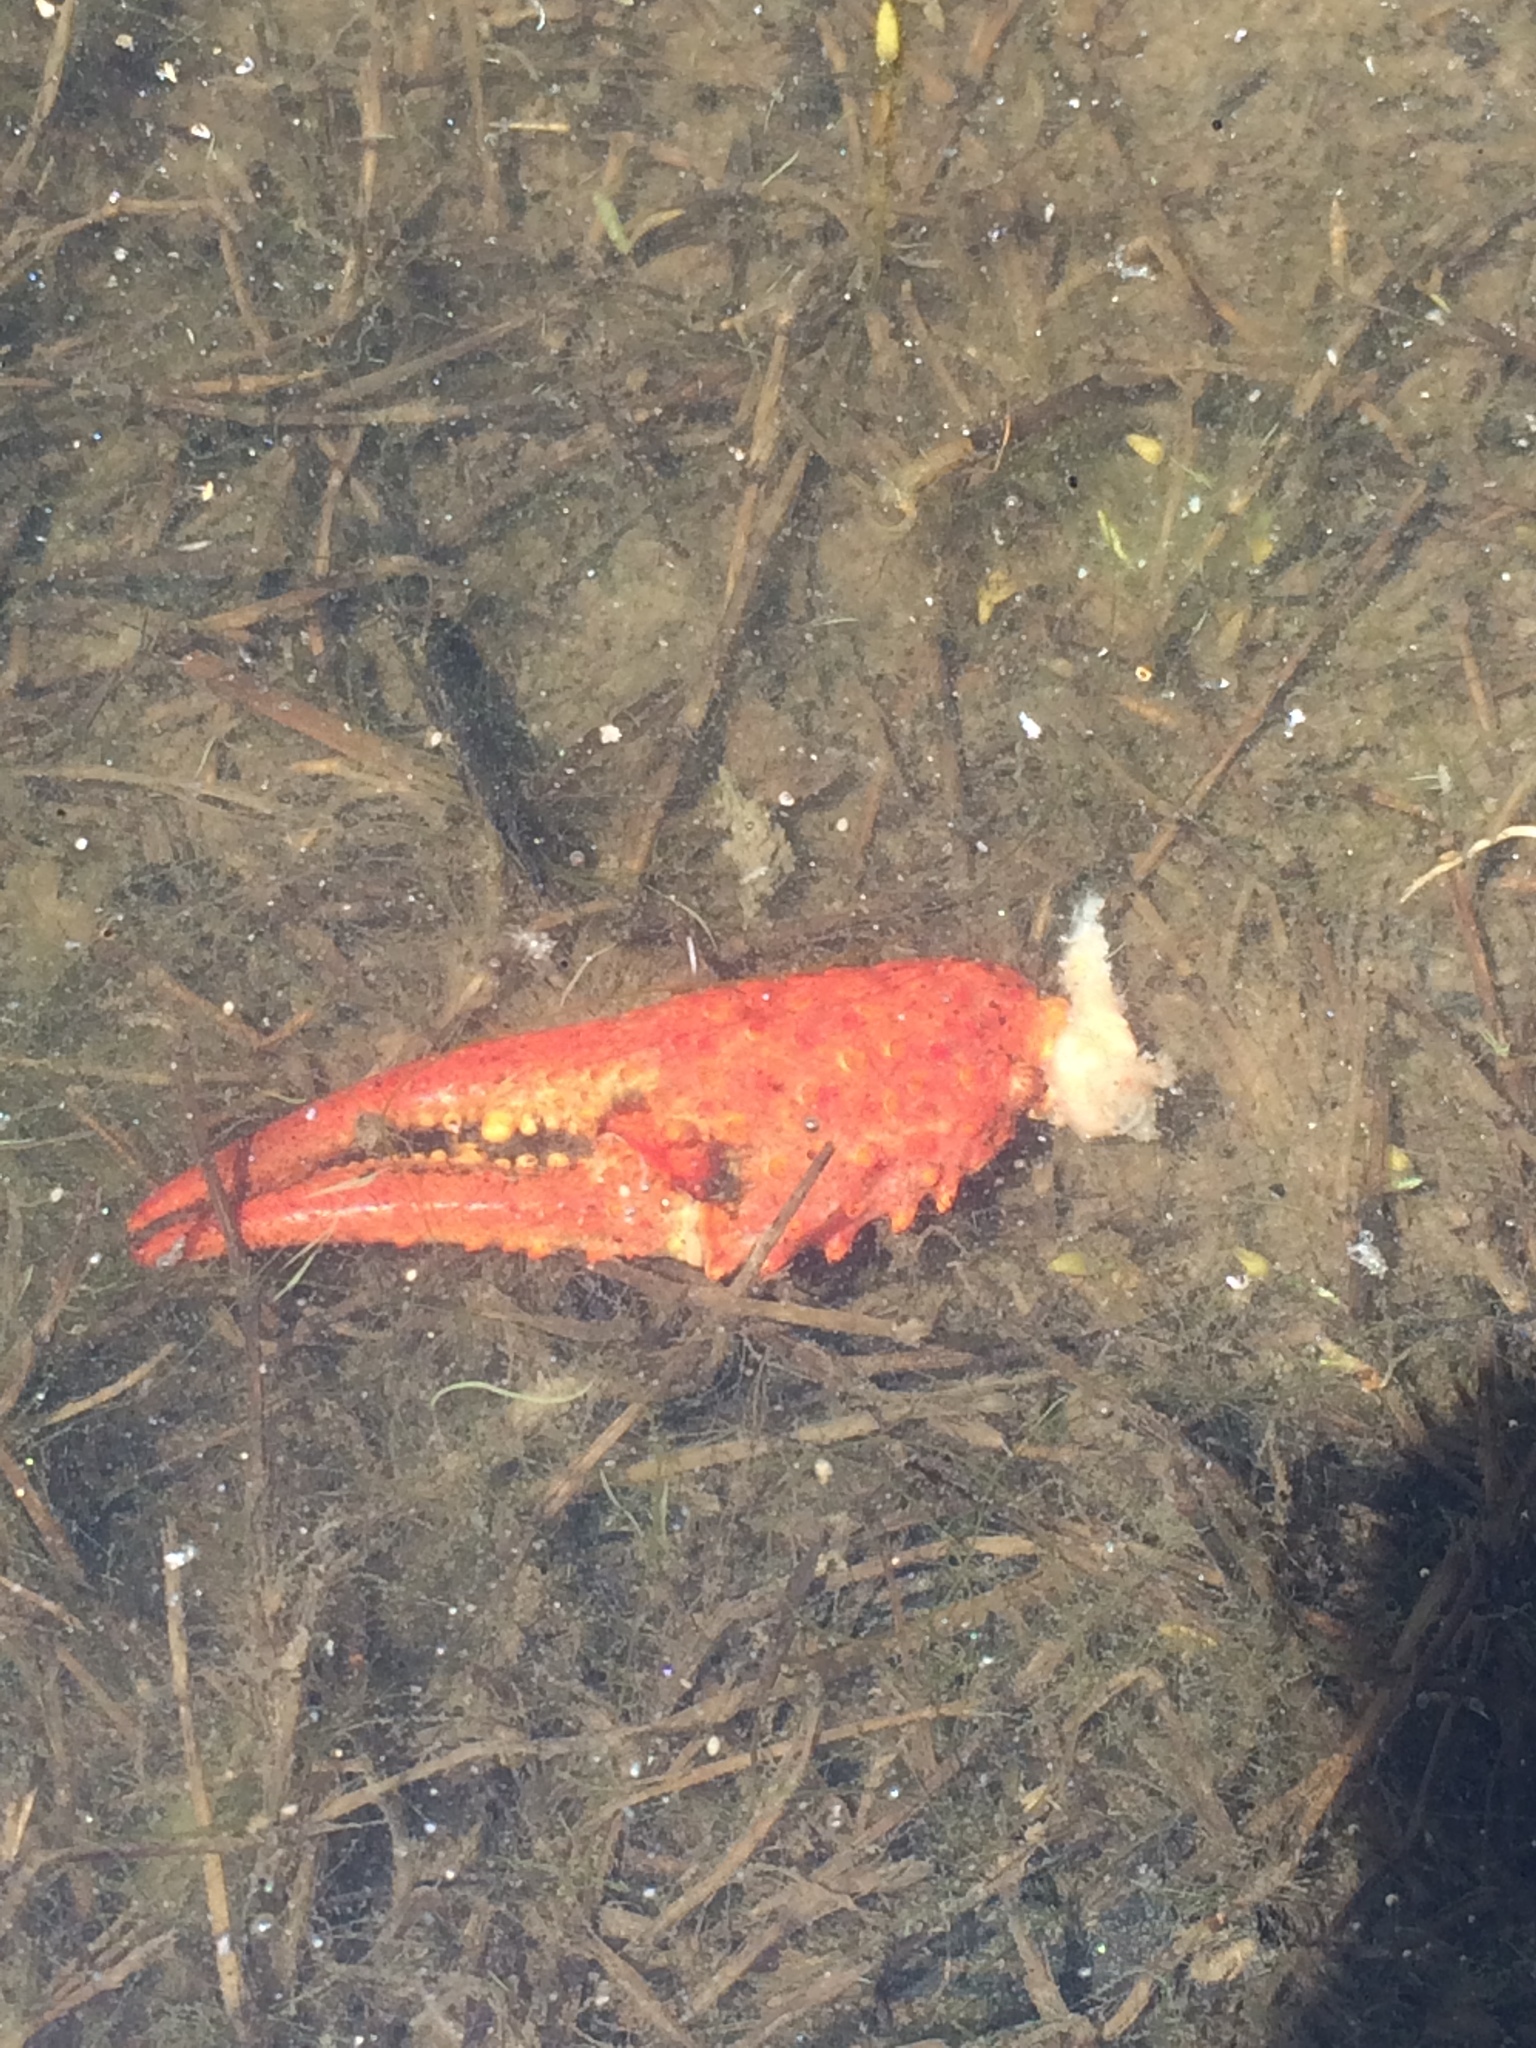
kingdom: Animalia
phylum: Arthropoda
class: Malacostraca
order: Decapoda
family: Cambaridae
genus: Procambarus
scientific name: Procambarus clarkii
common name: Red swamp crayfish
